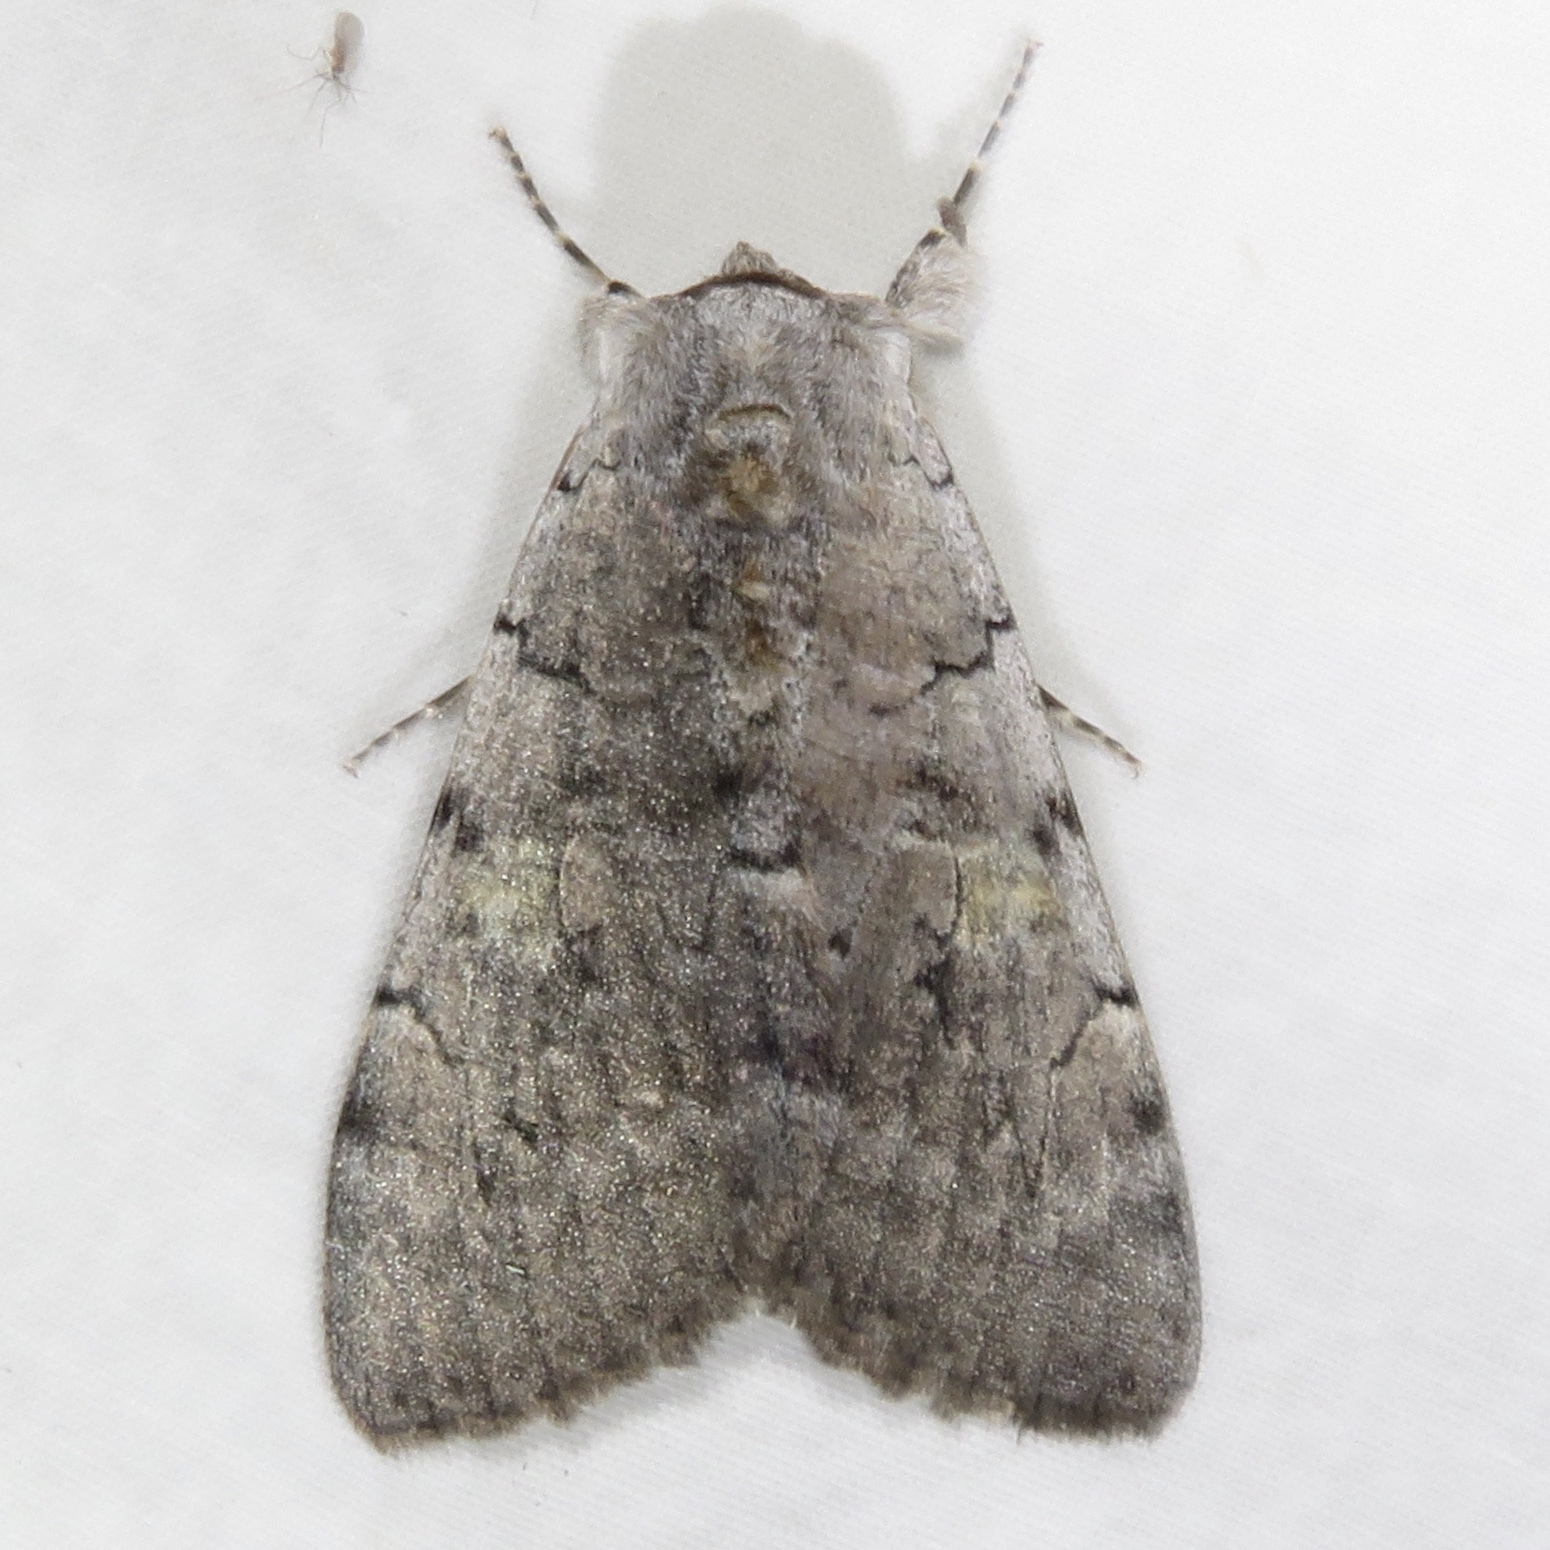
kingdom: Animalia
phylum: Arthropoda
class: Insecta
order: Lepidoptera
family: Erebidae
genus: Catocala
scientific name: Catocala concumbens
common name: Pink underwing
